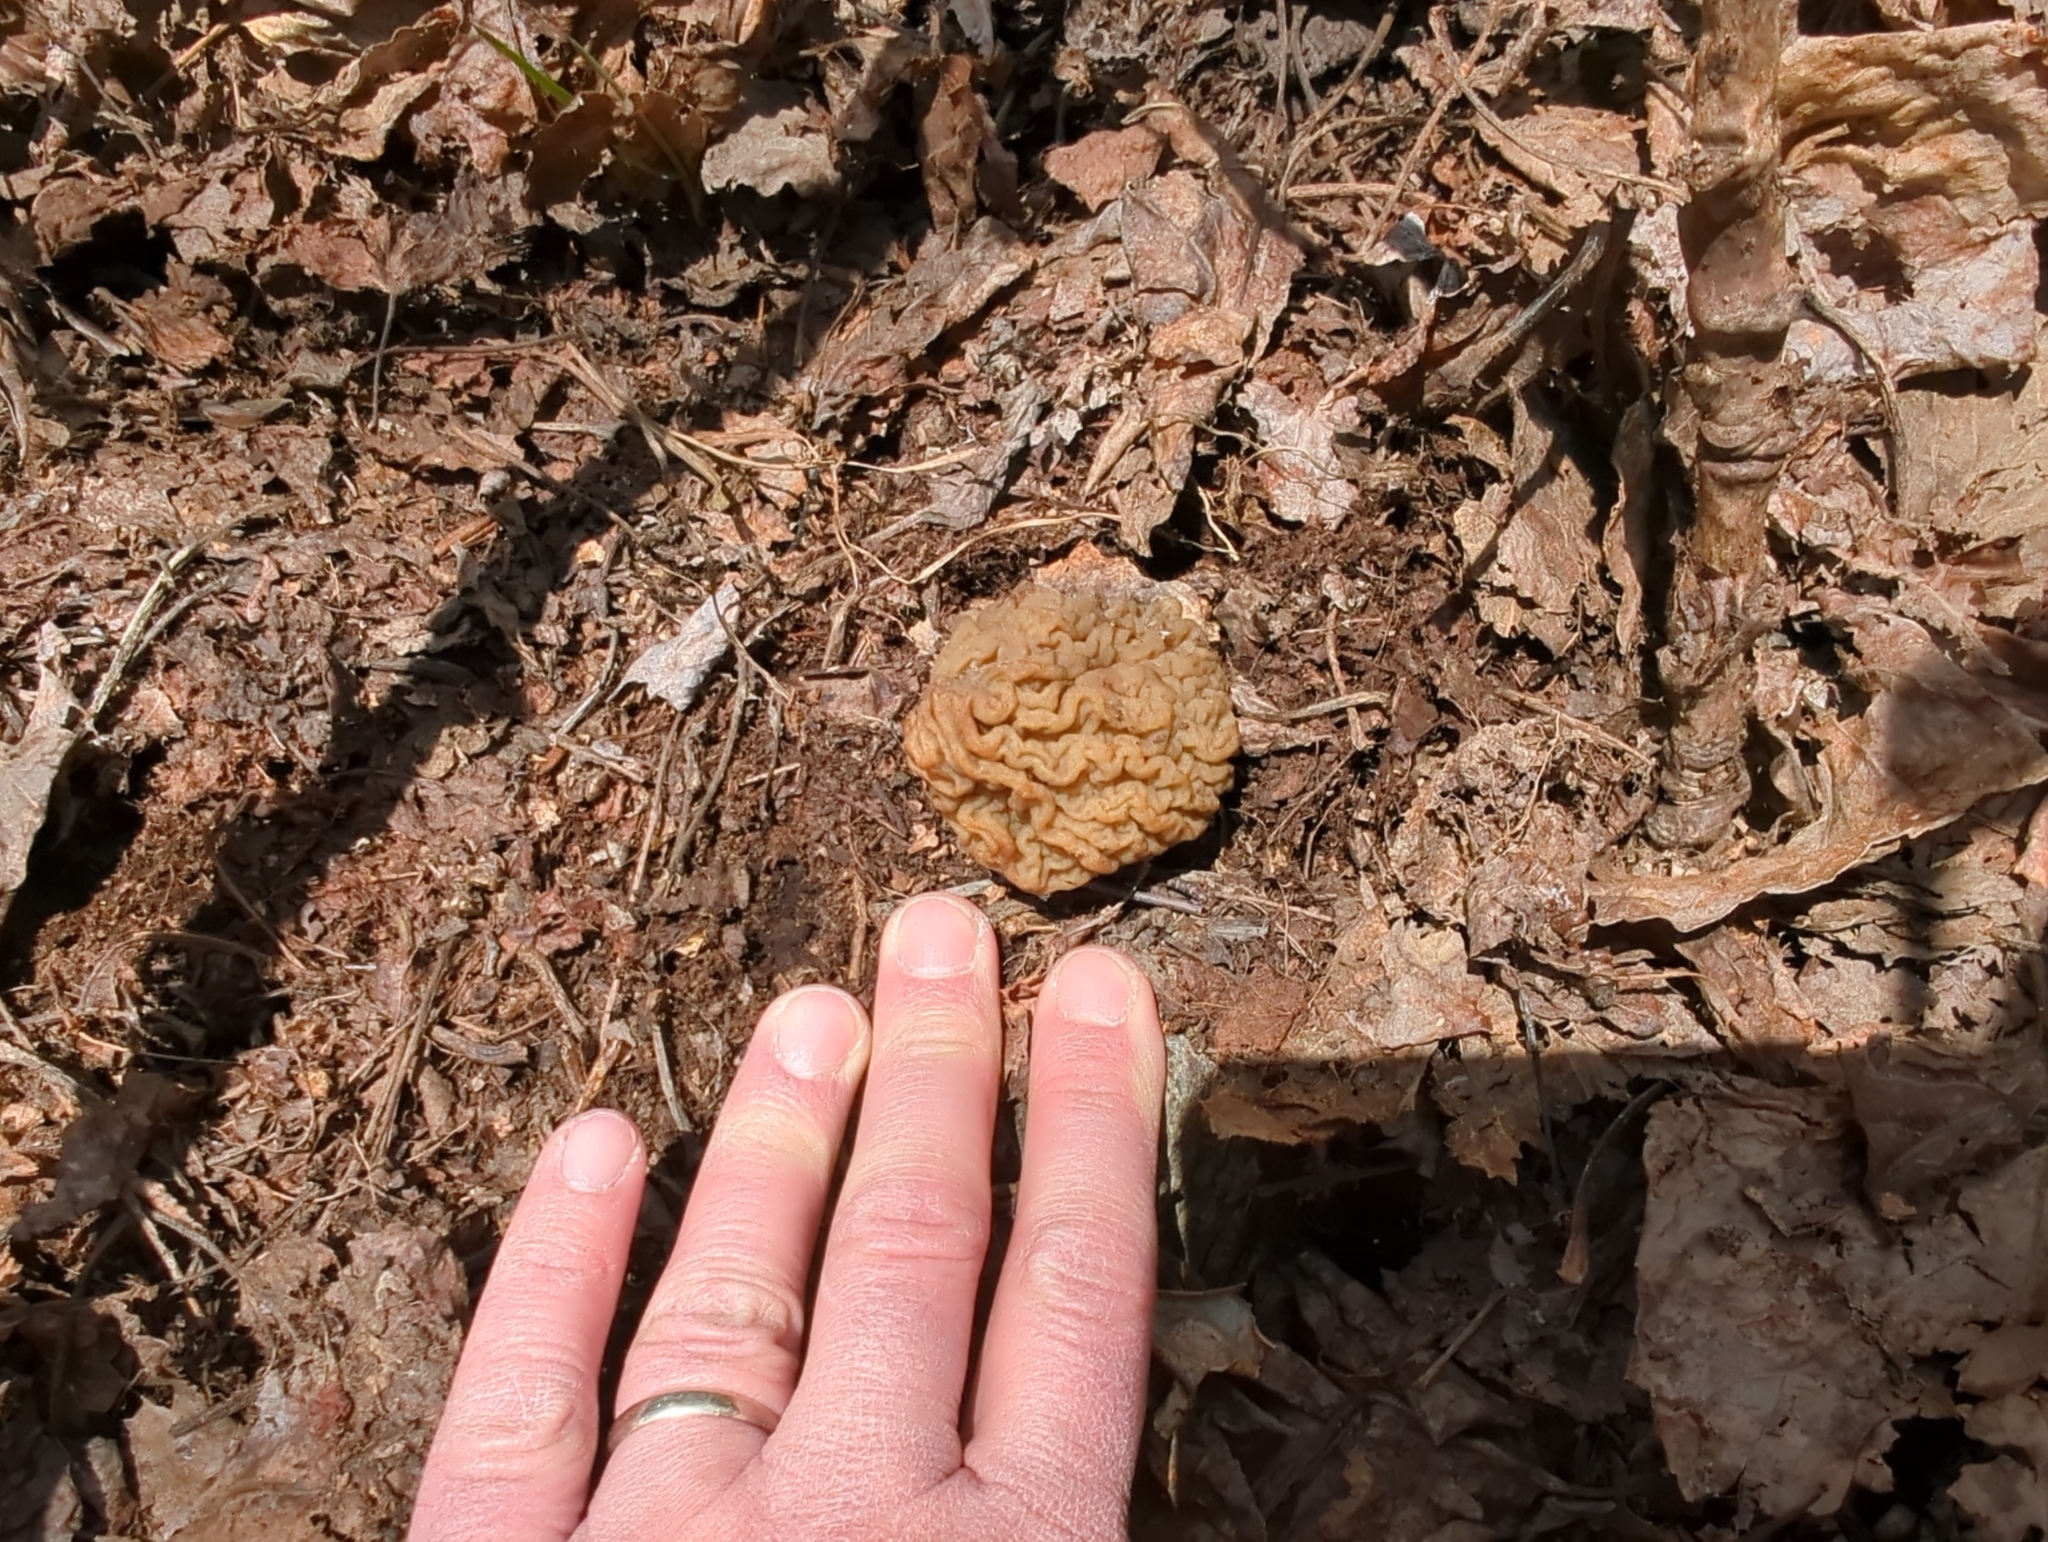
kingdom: Fungi
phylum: Ascomycota
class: Pezizomycetes
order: Pezizales
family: Morchellaceae
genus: Verpa
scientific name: Verpa bohemica
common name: Wrinkled thimble morel
